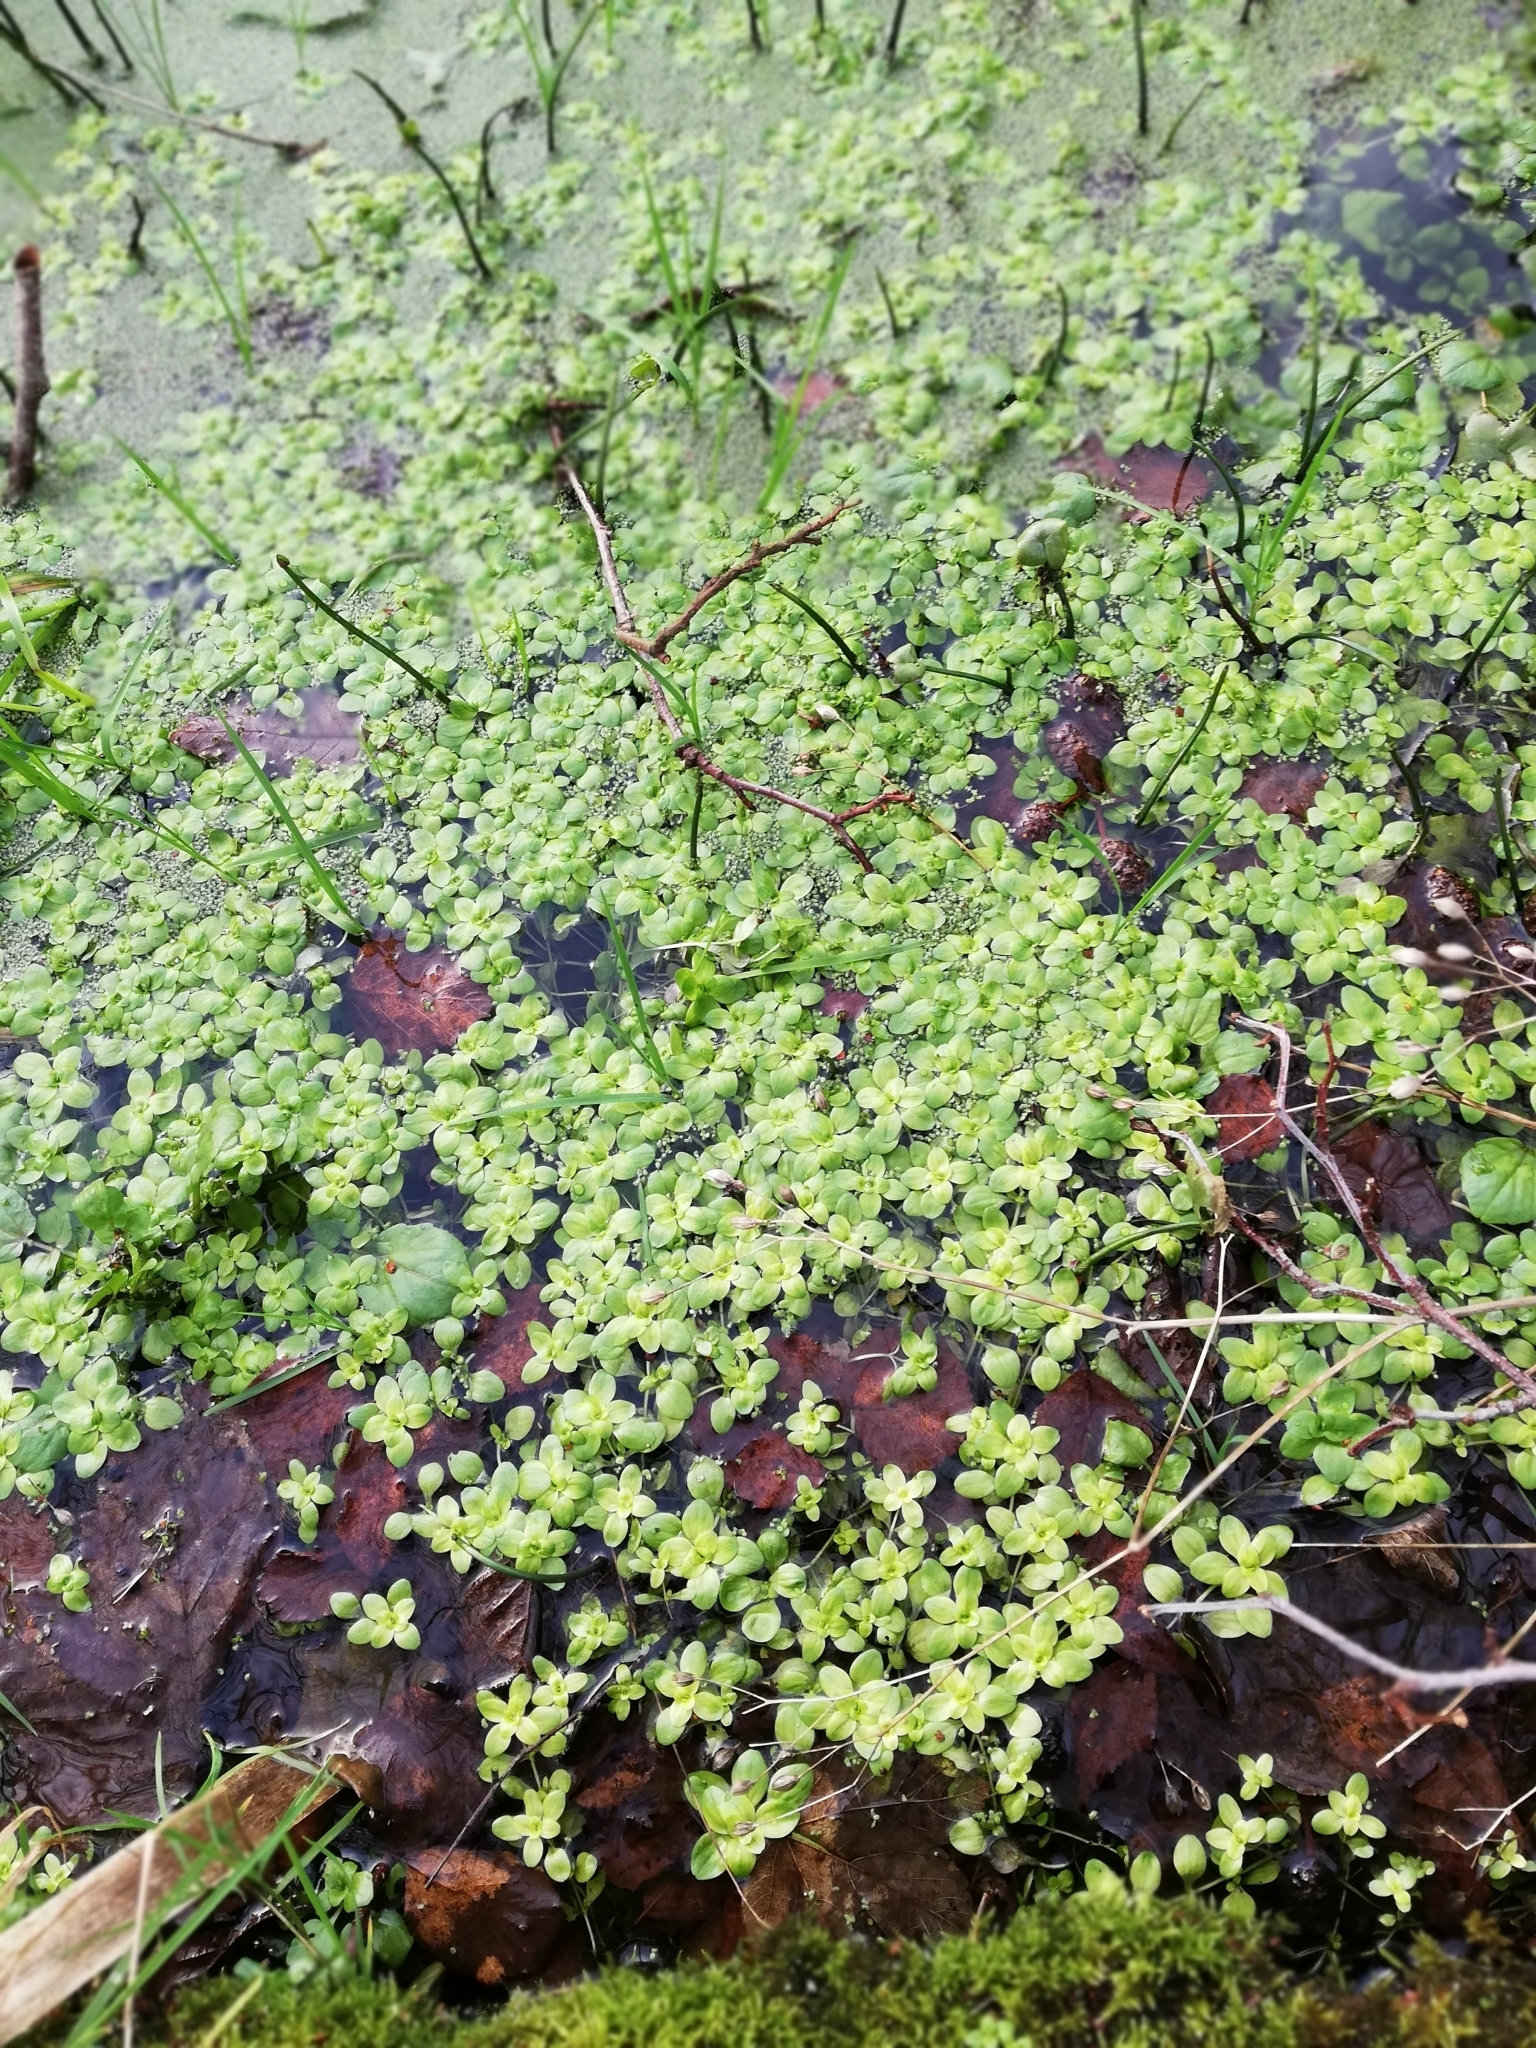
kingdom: Plantae
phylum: Tracheophyta
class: Liliopsida
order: Alismatales
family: Araceae
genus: Lemna
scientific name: Lemna minuta
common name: Least duckweed
